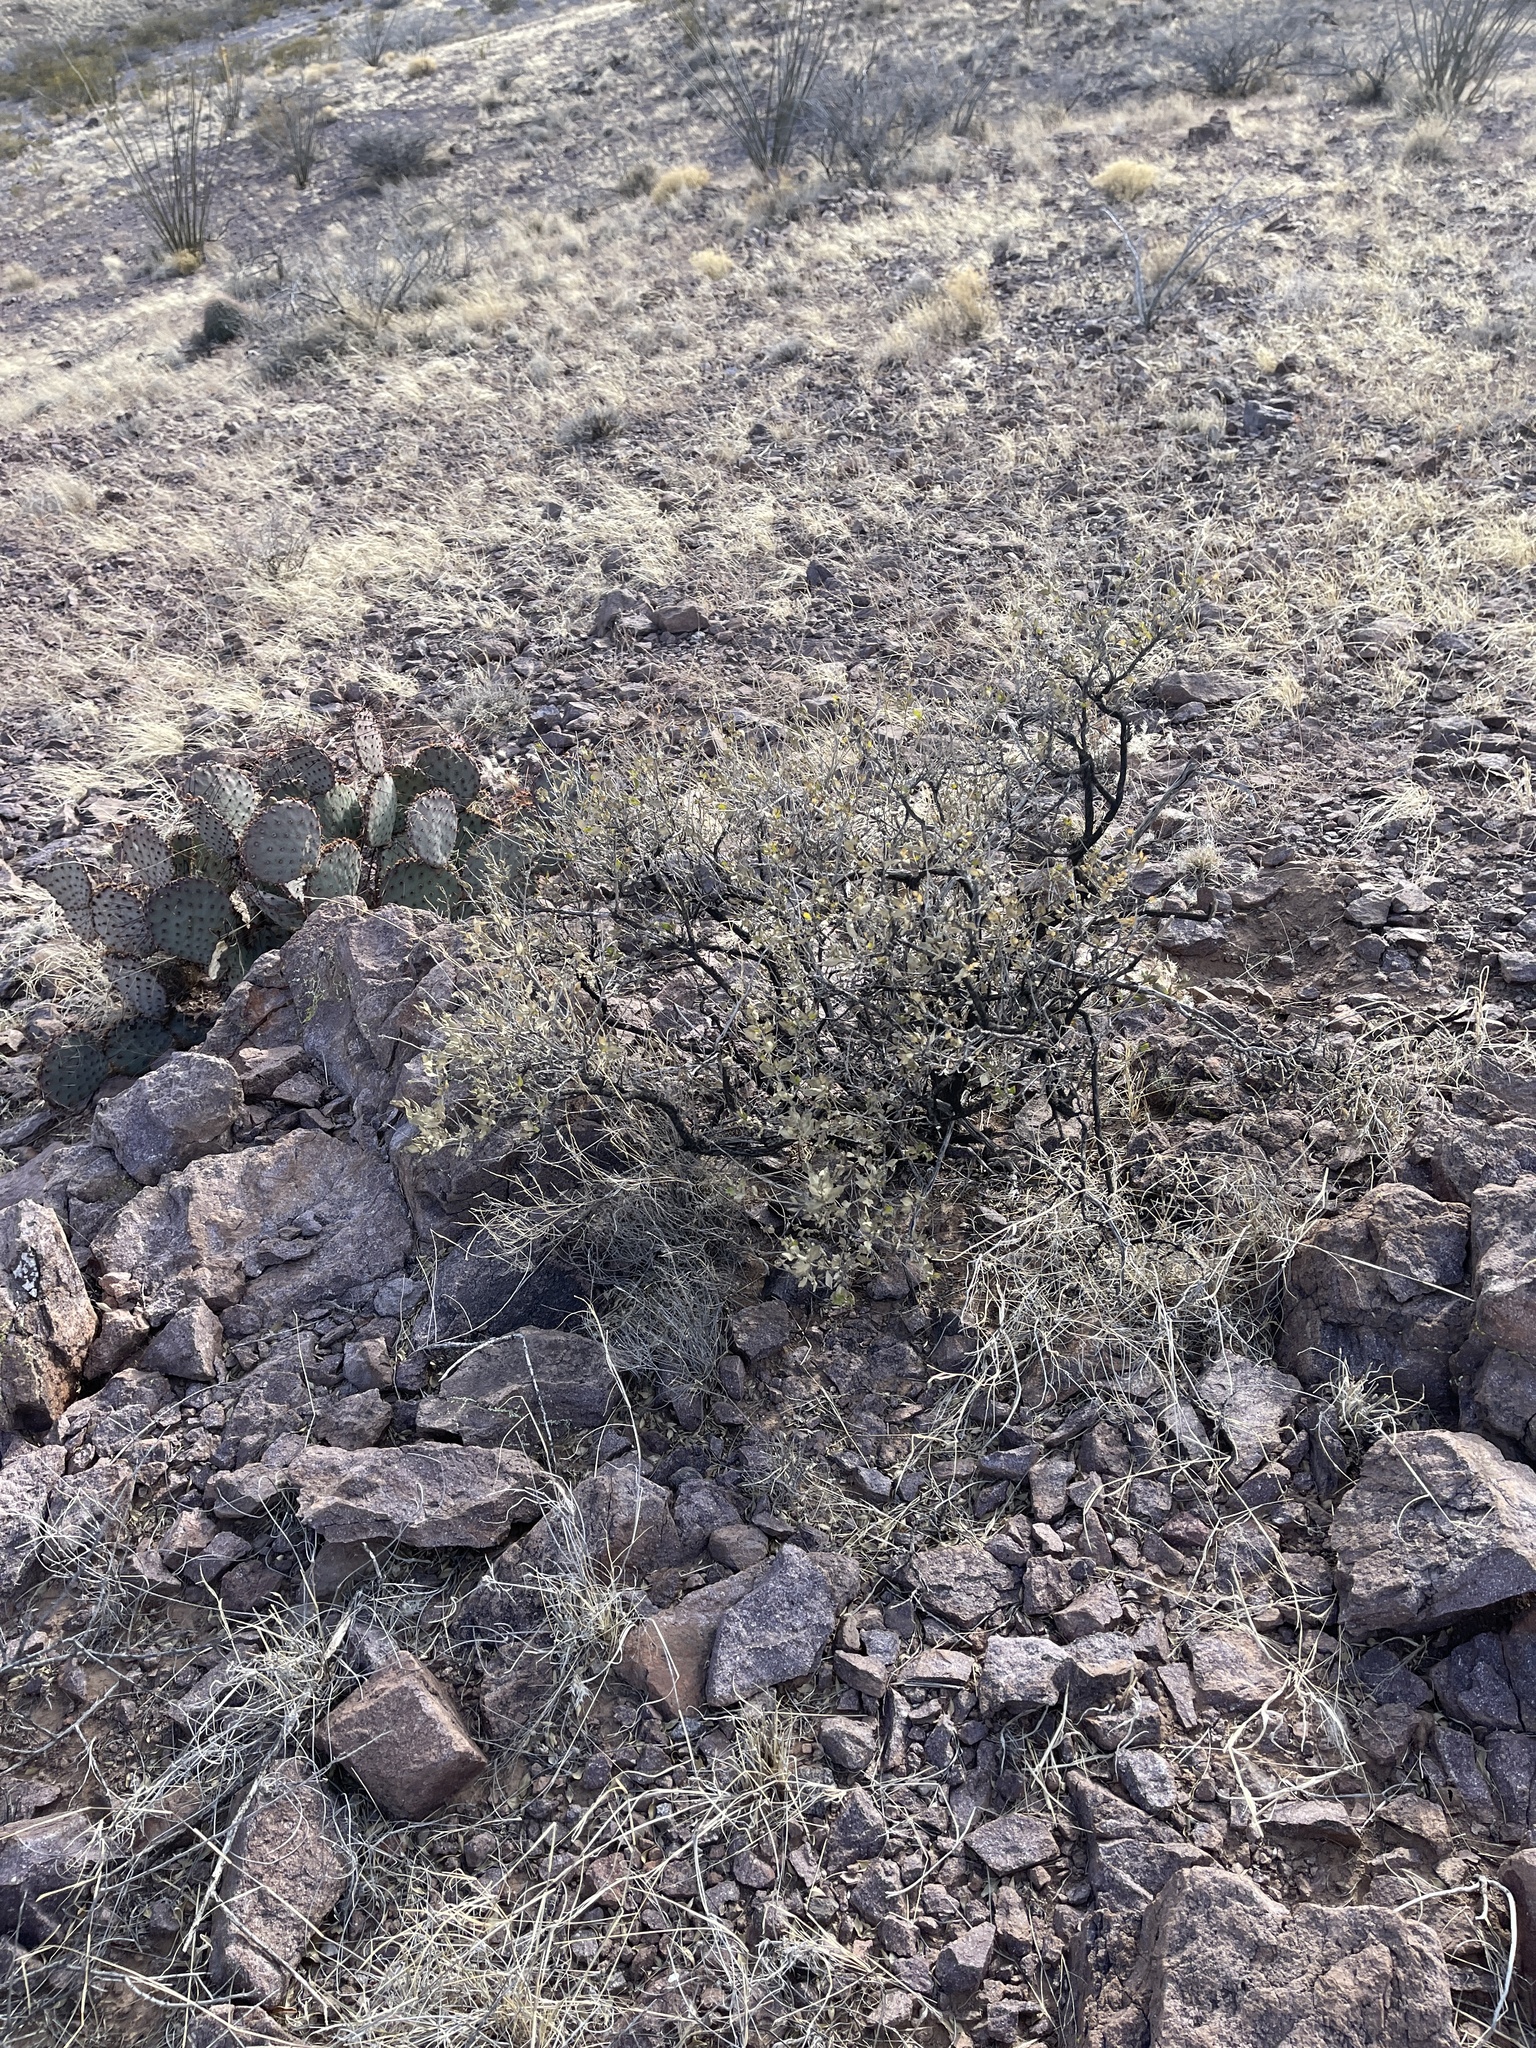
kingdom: Plantae
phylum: Tracheophyta
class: Magnoliopsida
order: Asterales
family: Asteraceae
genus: Flourensia
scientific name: Flourensia cernua
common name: Varnishbush
